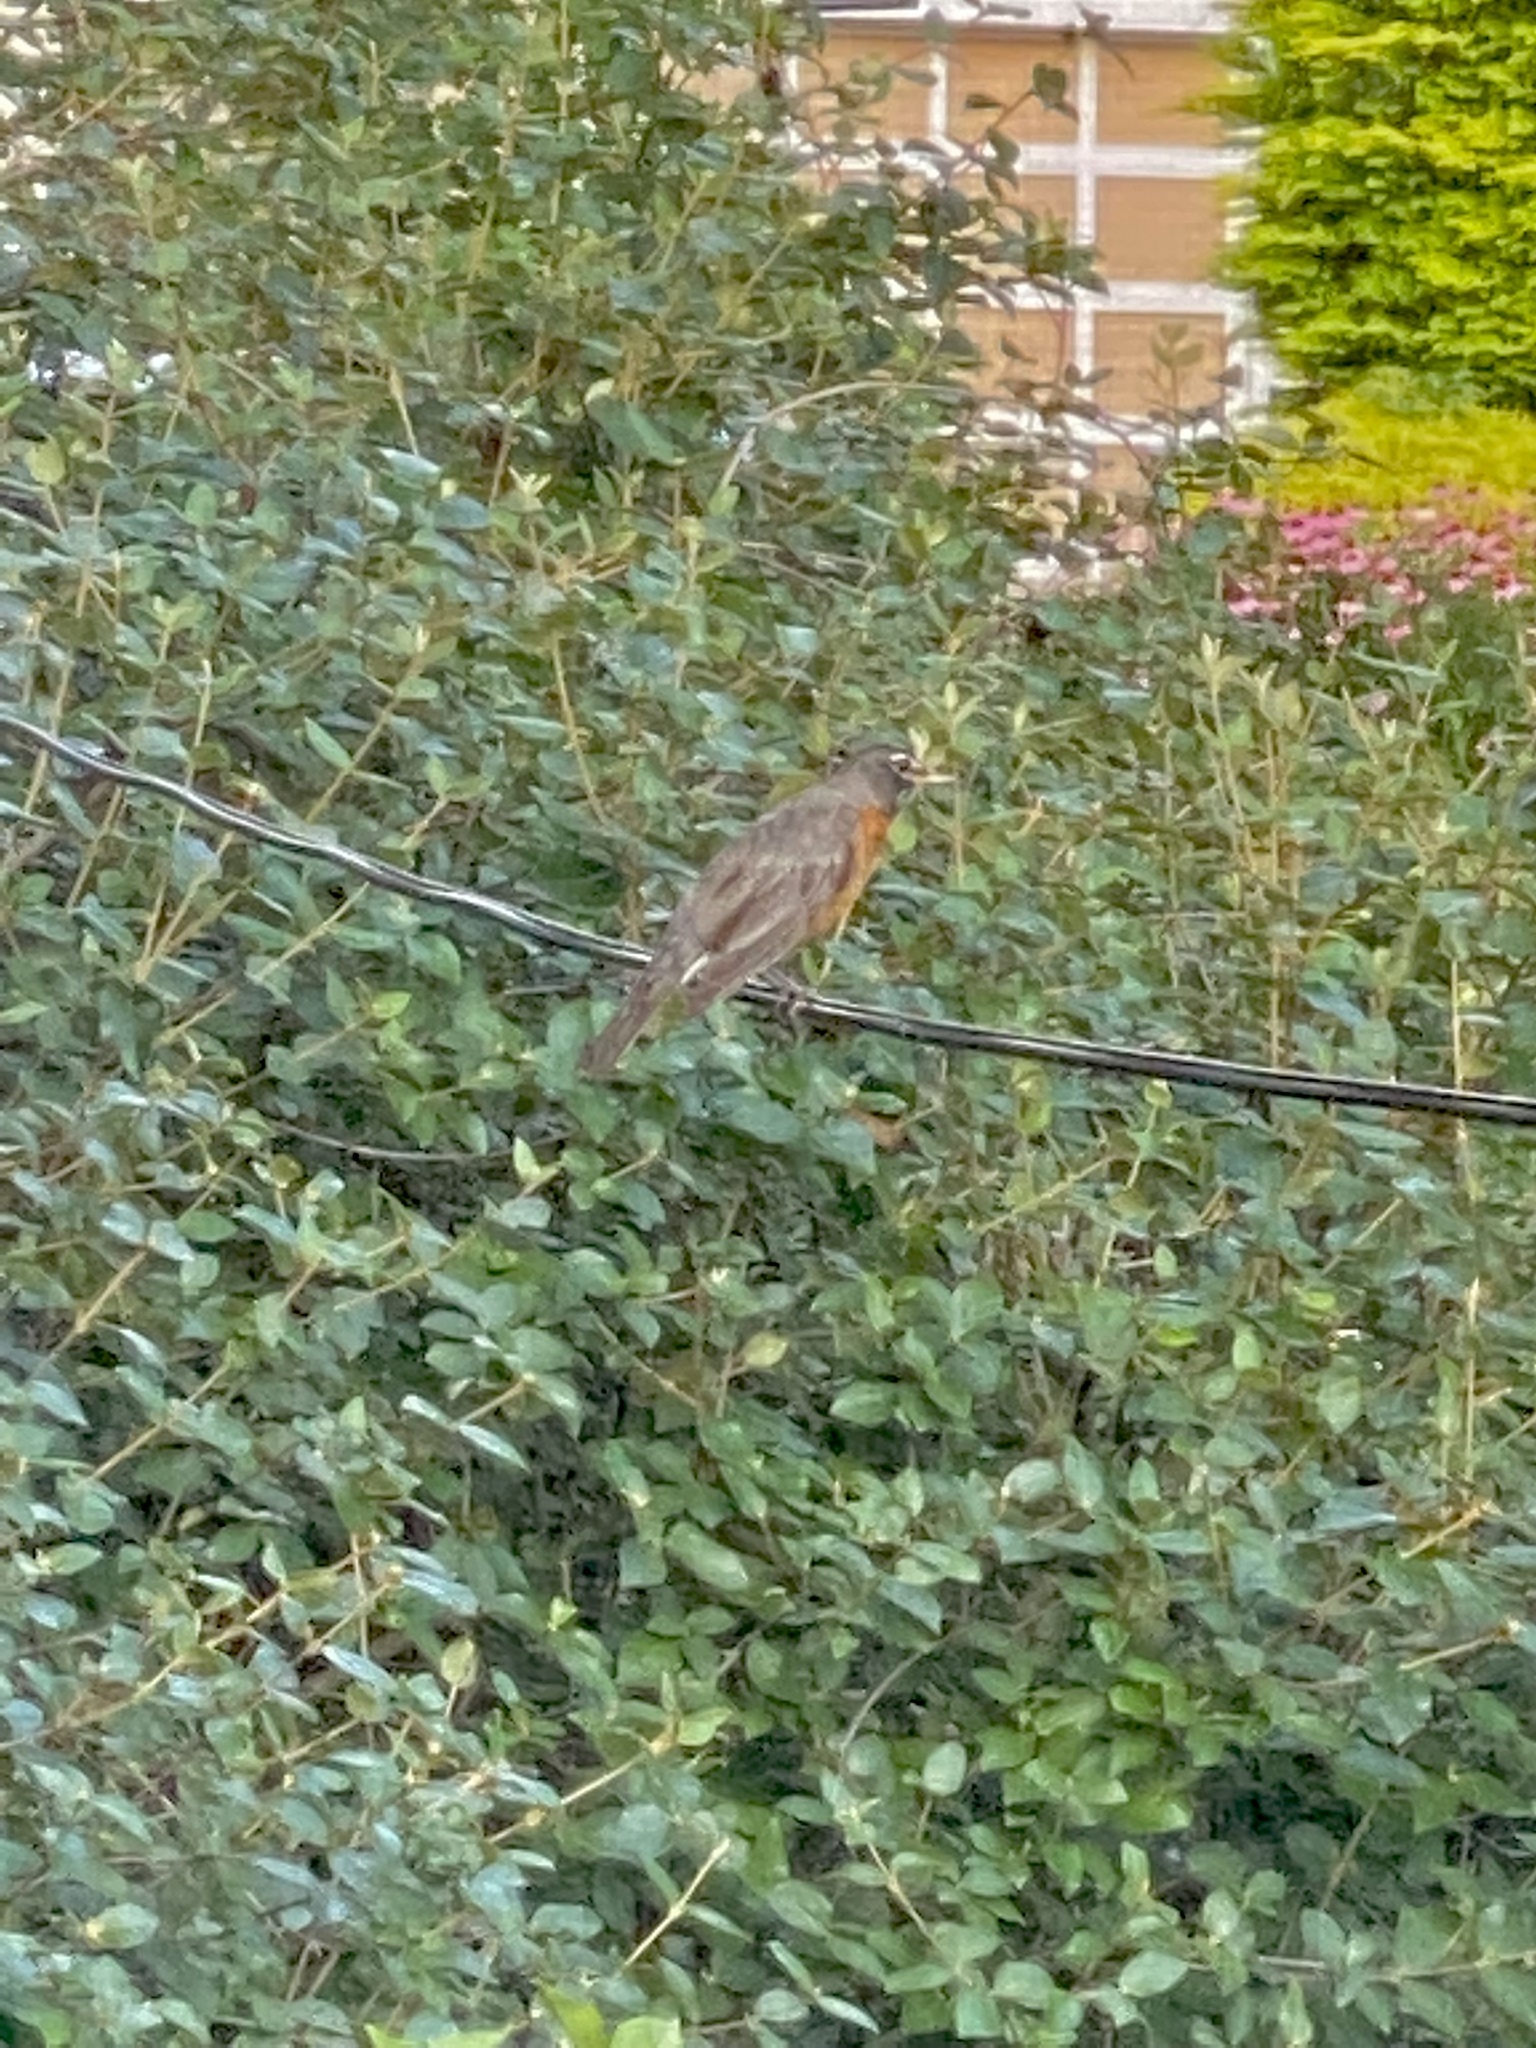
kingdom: Animalia
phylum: Chordata
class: Aves
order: Passeriformes
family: Turdidae
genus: Turdus
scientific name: Turdus migratorius
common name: American robin
